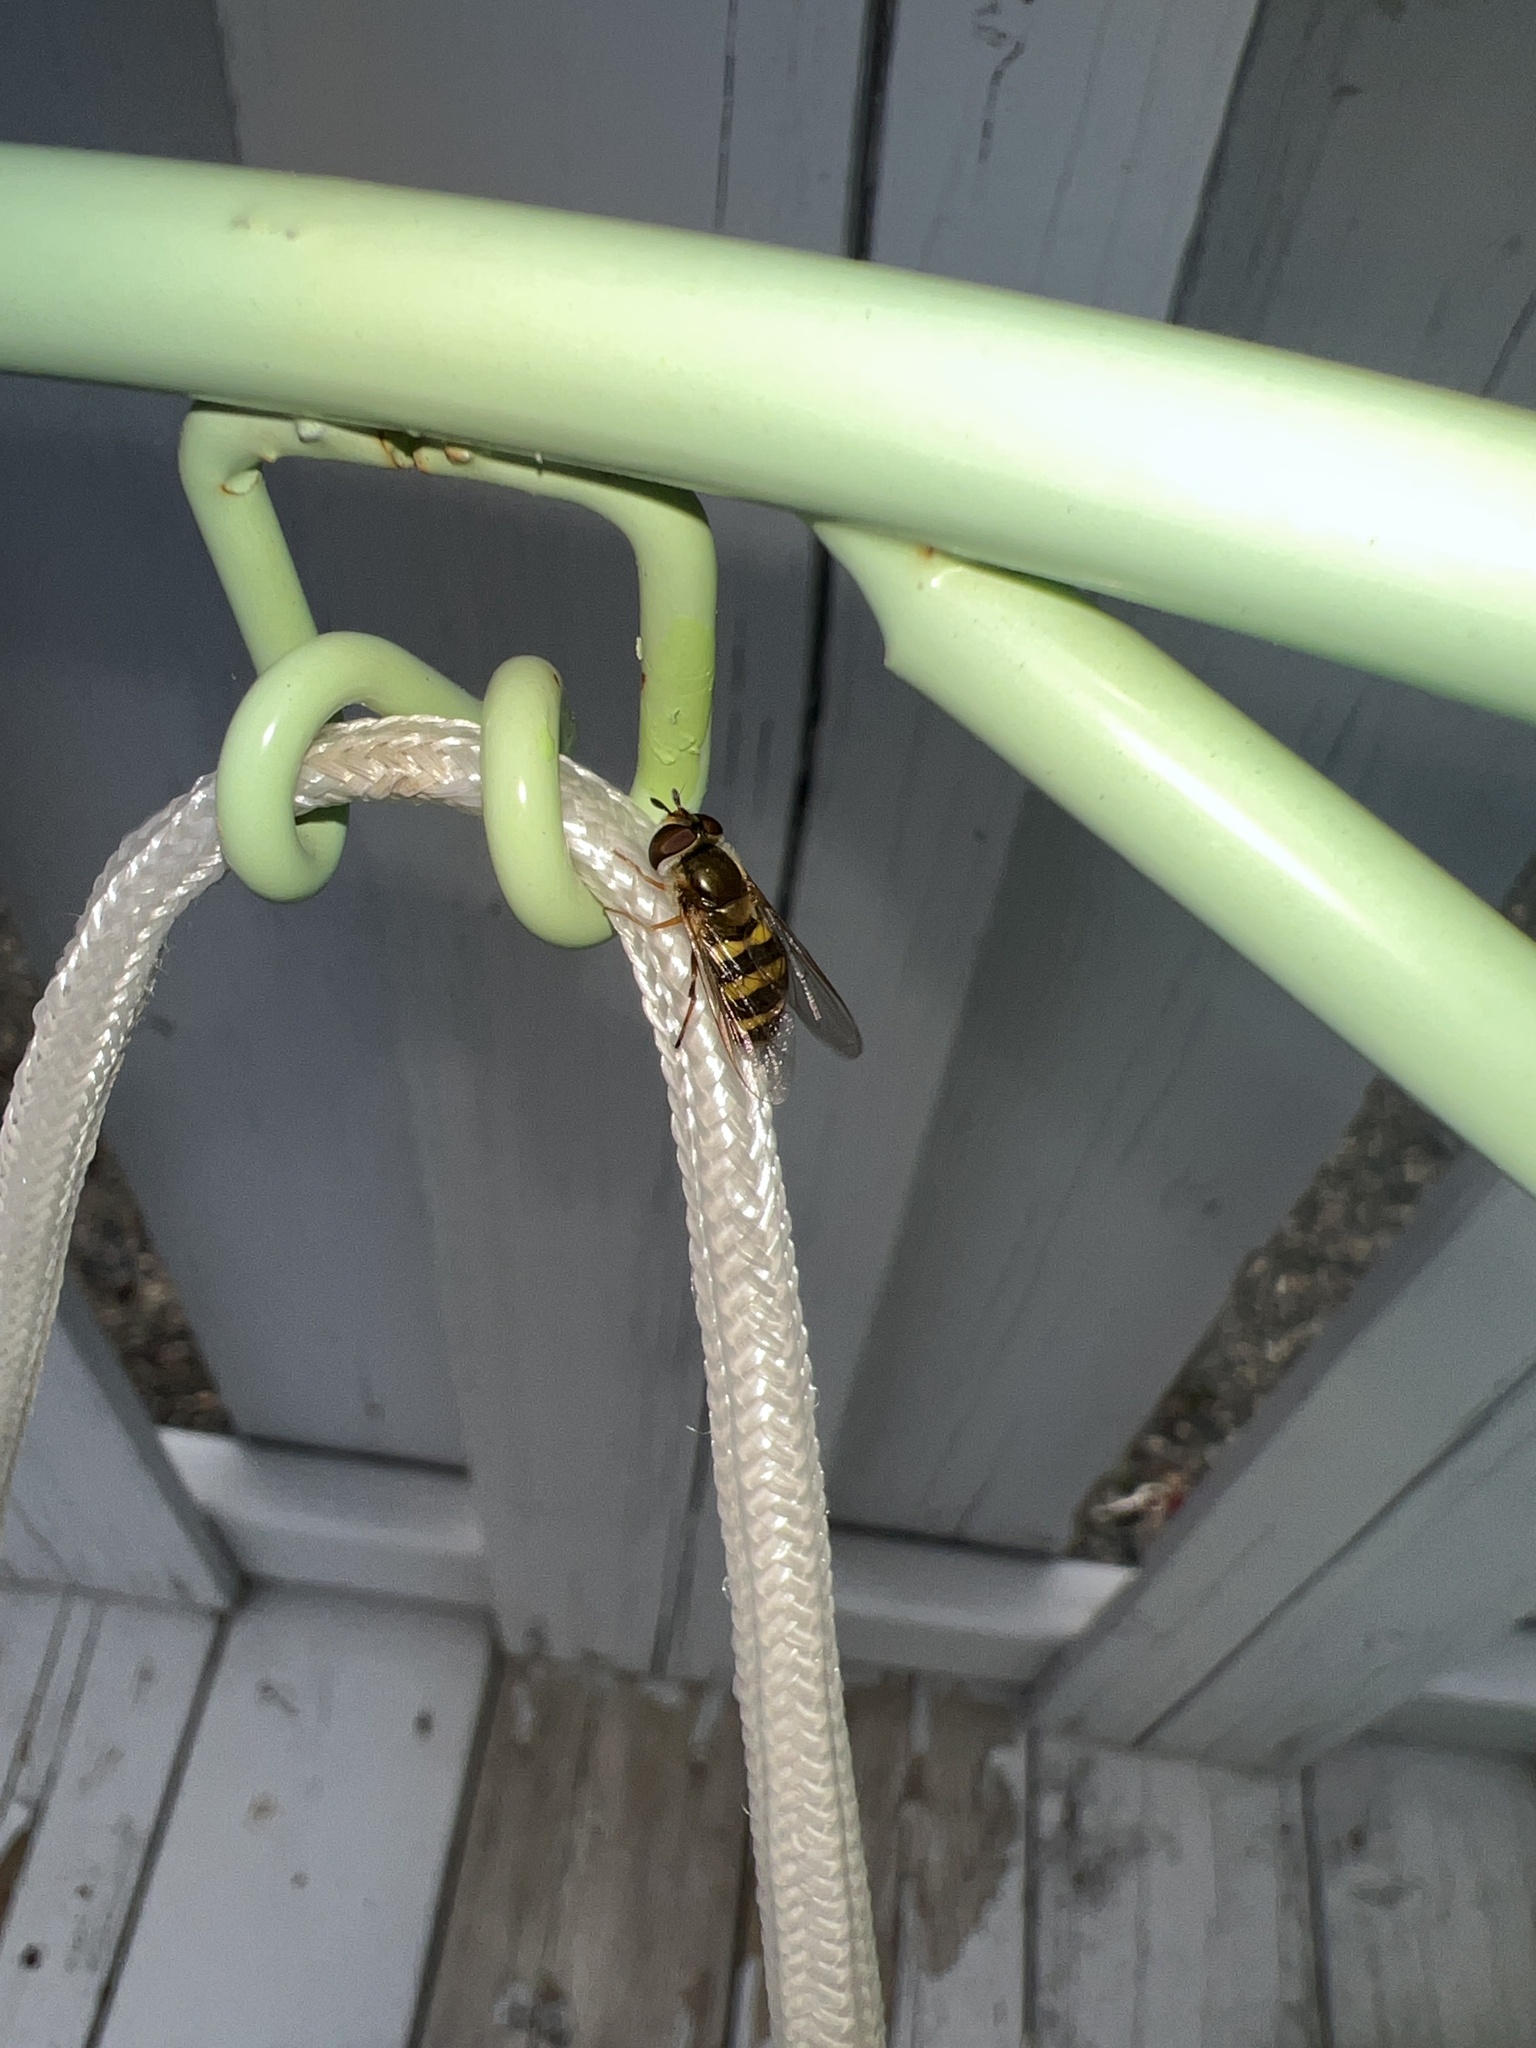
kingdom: Animalia
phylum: Arthropoda
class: Insecta
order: Diptera
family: Syrphidae
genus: Eupeodes
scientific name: Eupeodes
